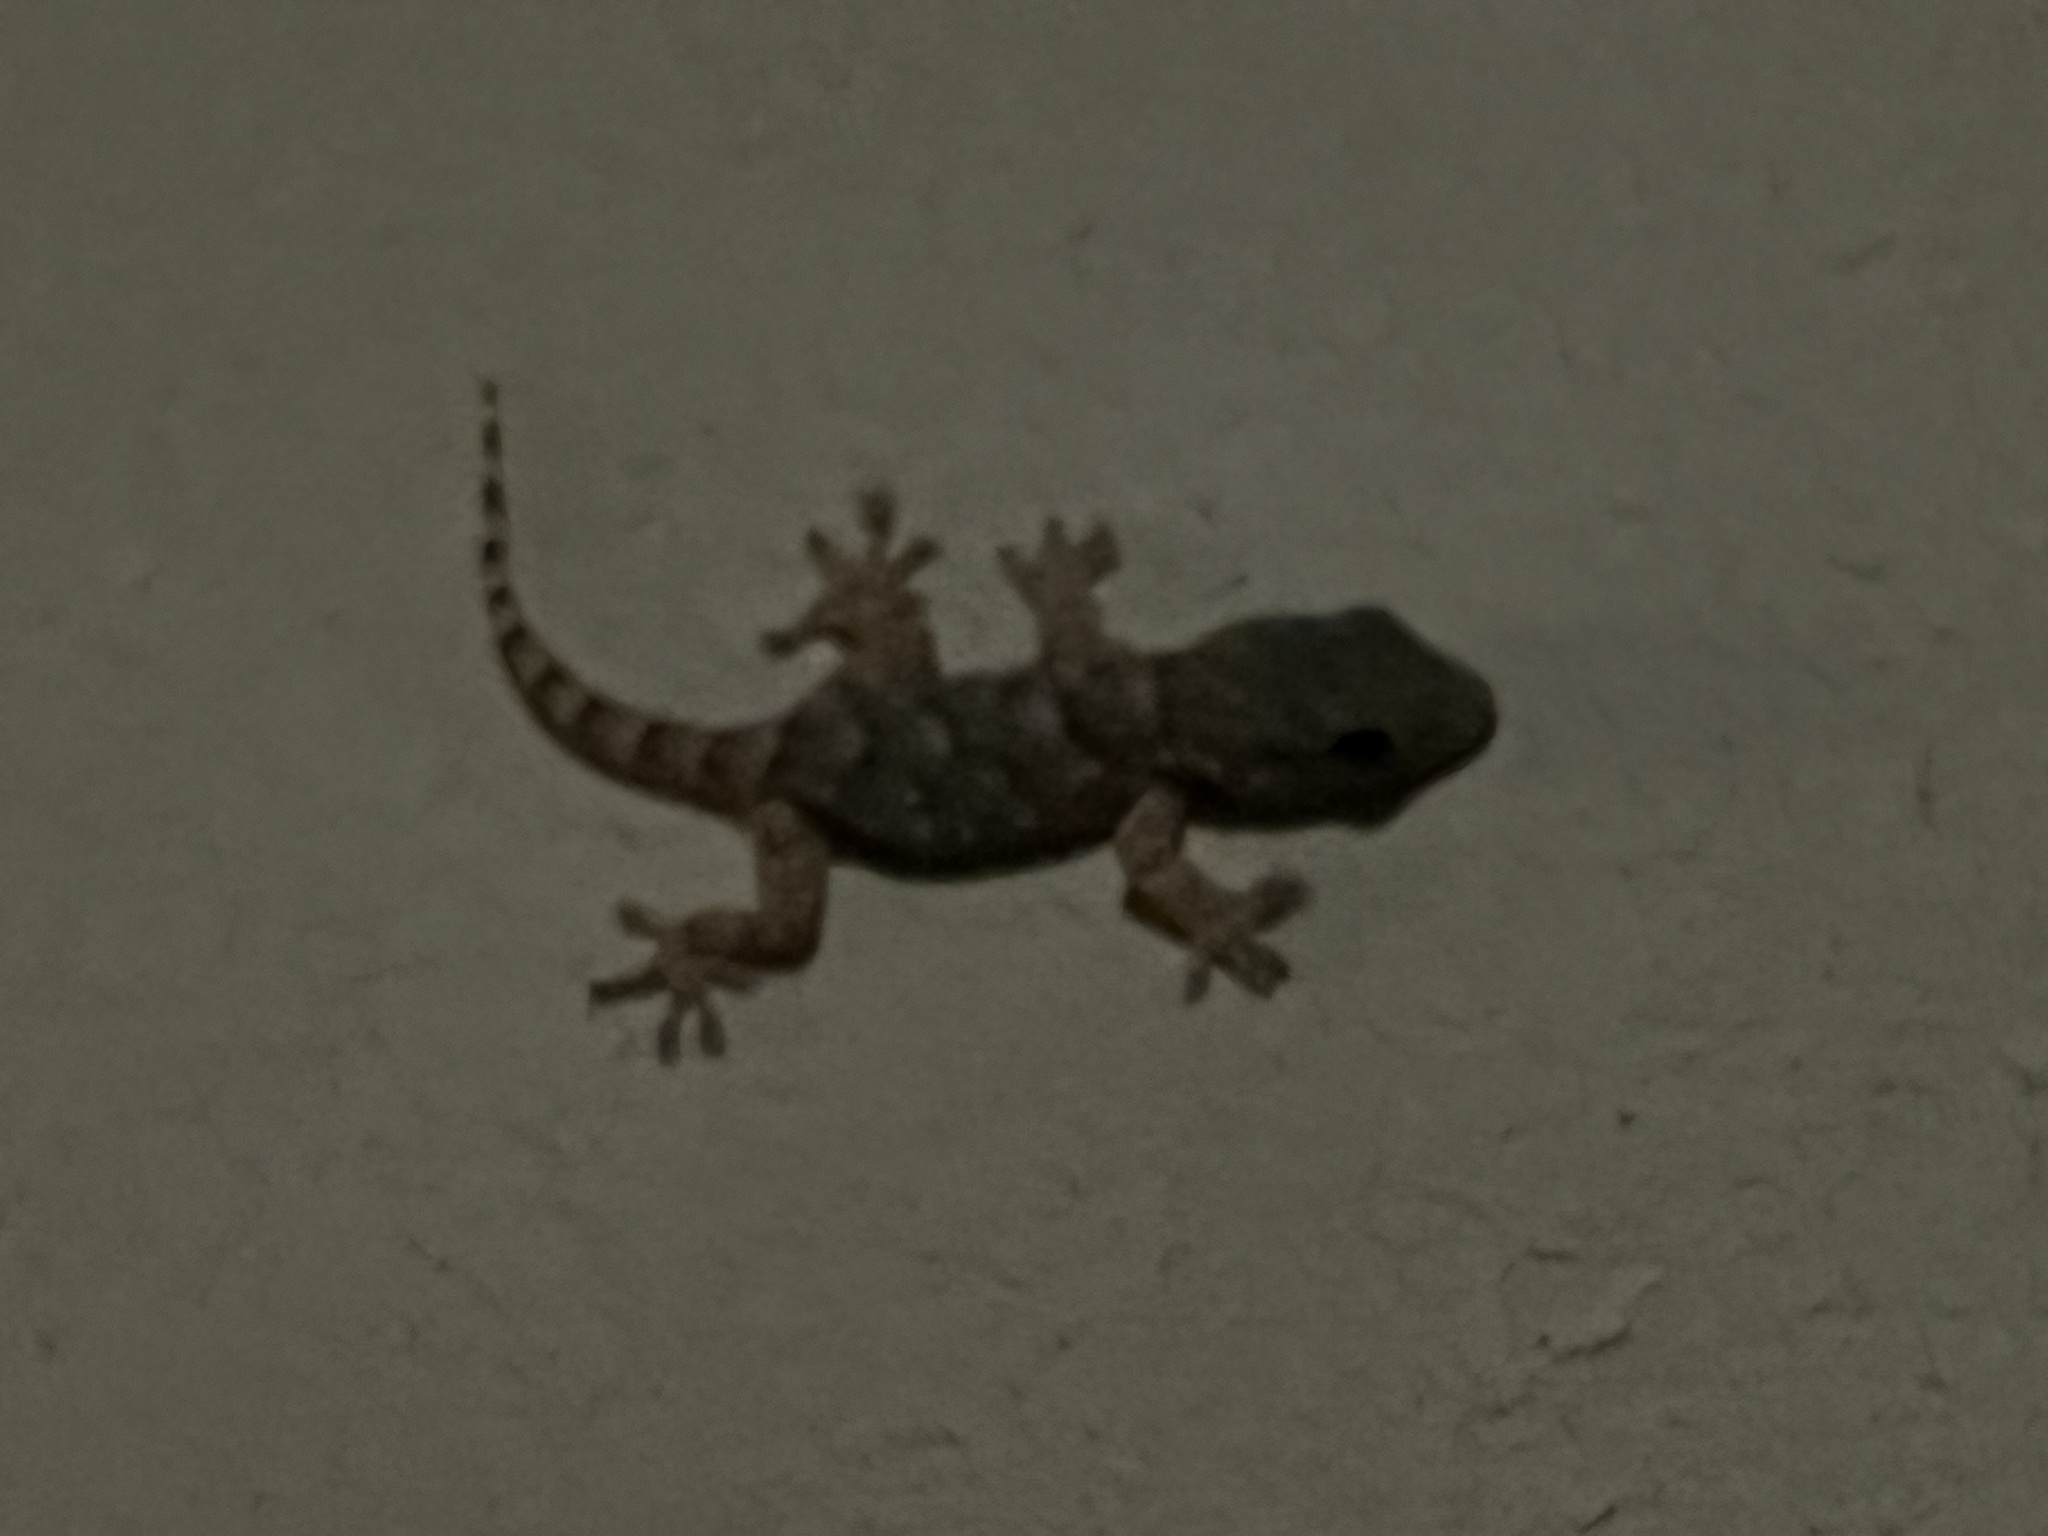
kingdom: Animalia
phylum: Chordata
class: Squamata
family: Phyllodactylidae
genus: Tarentola
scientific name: Tarentola mauritanica
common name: Moorish gecko
